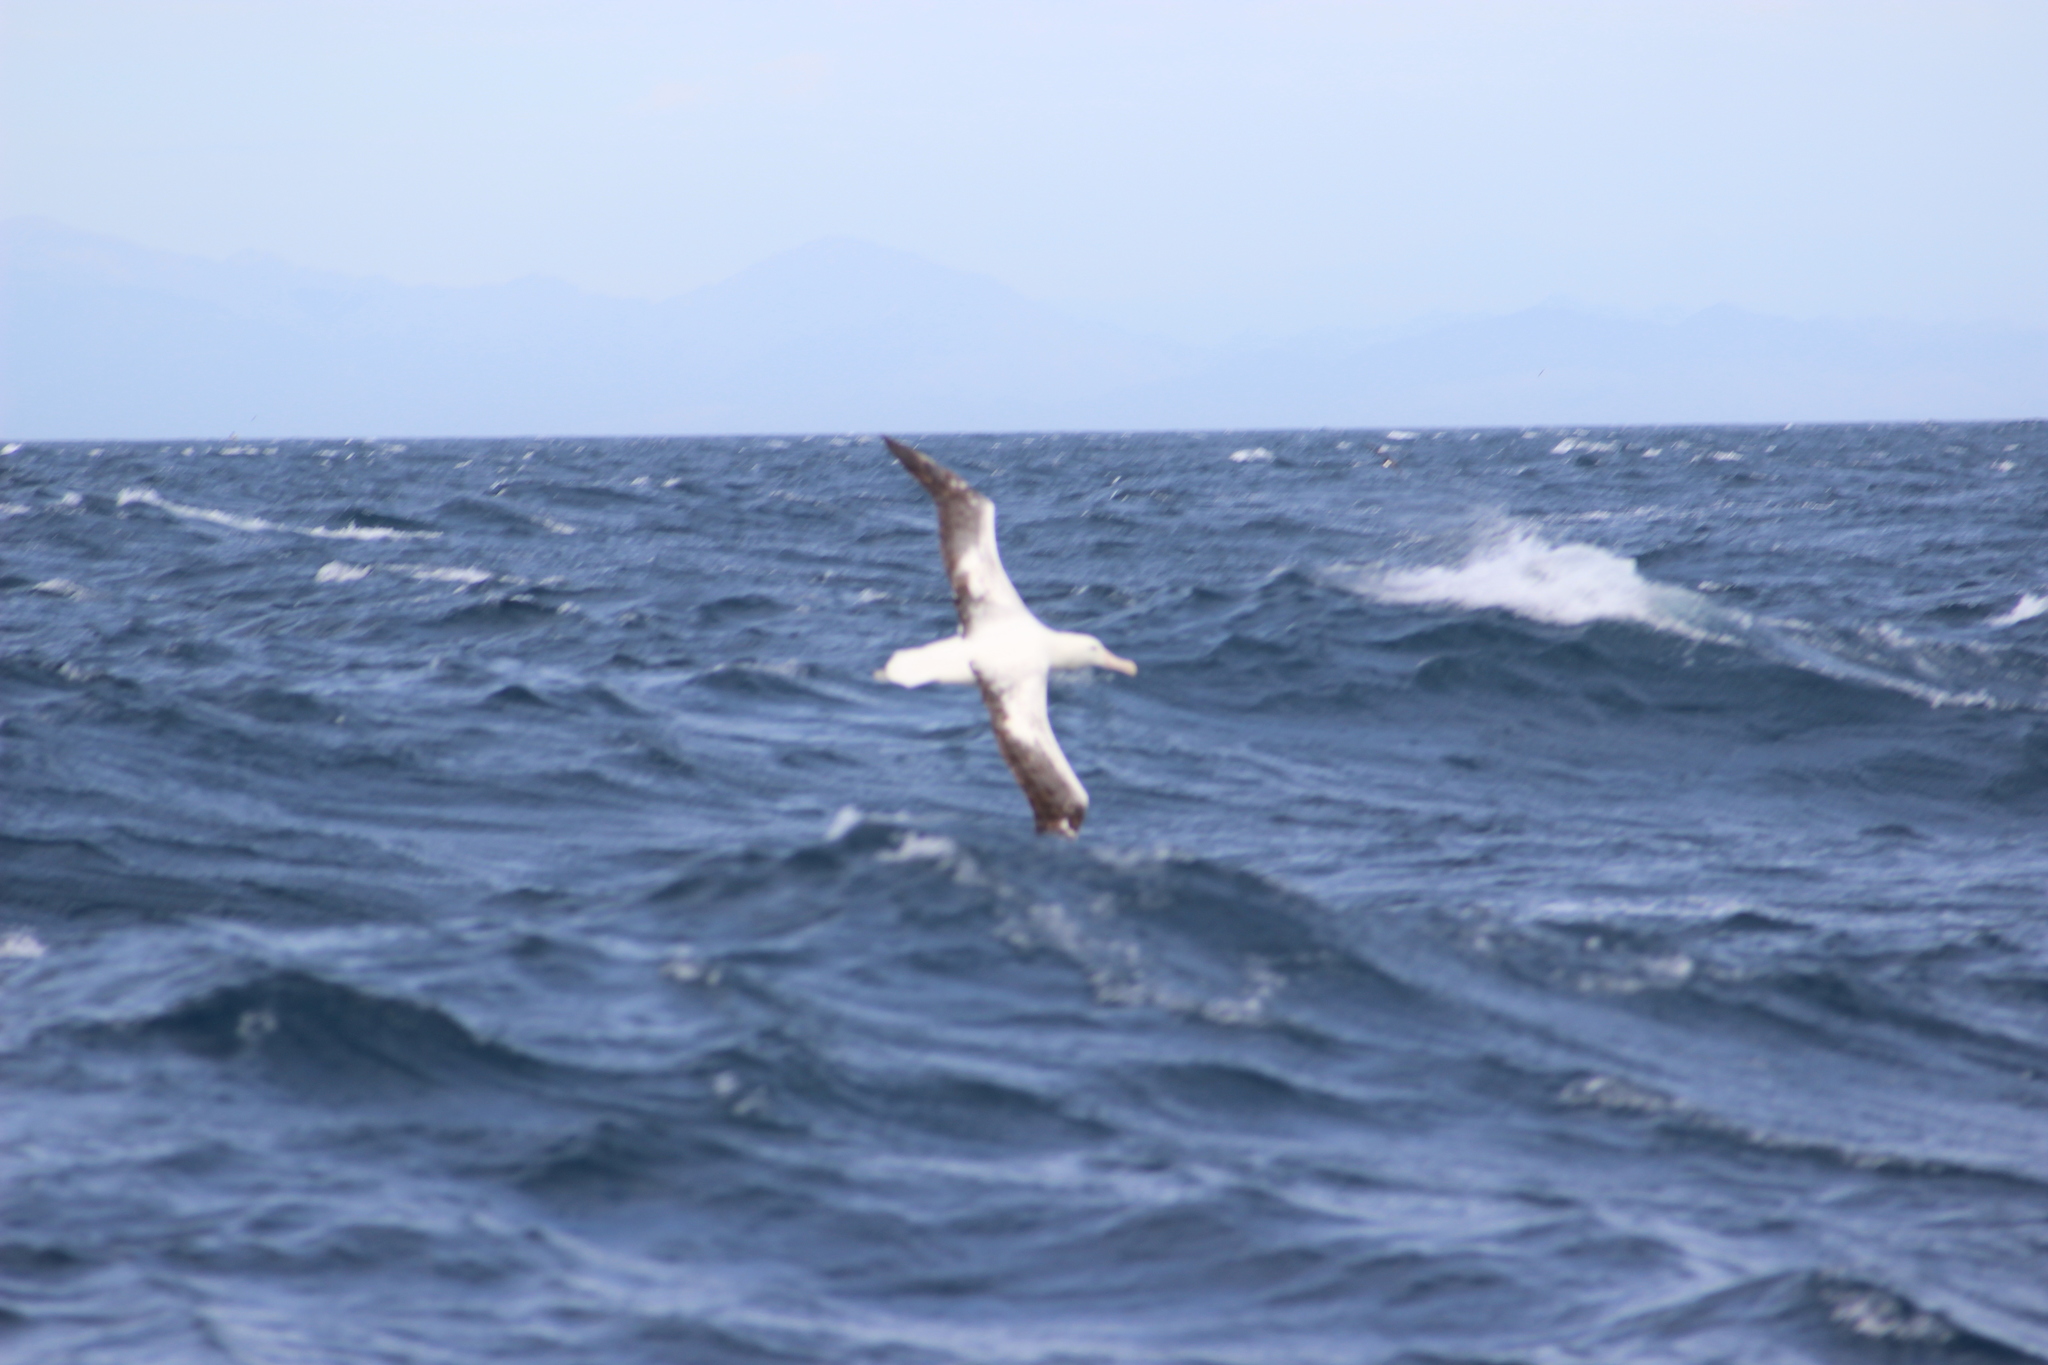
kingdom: Animalia
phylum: Chordata
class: Aves
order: Procellariiformes
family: Diomedeidae
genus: Diomedea
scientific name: Diomedea epomophora
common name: Southern royal albatross
